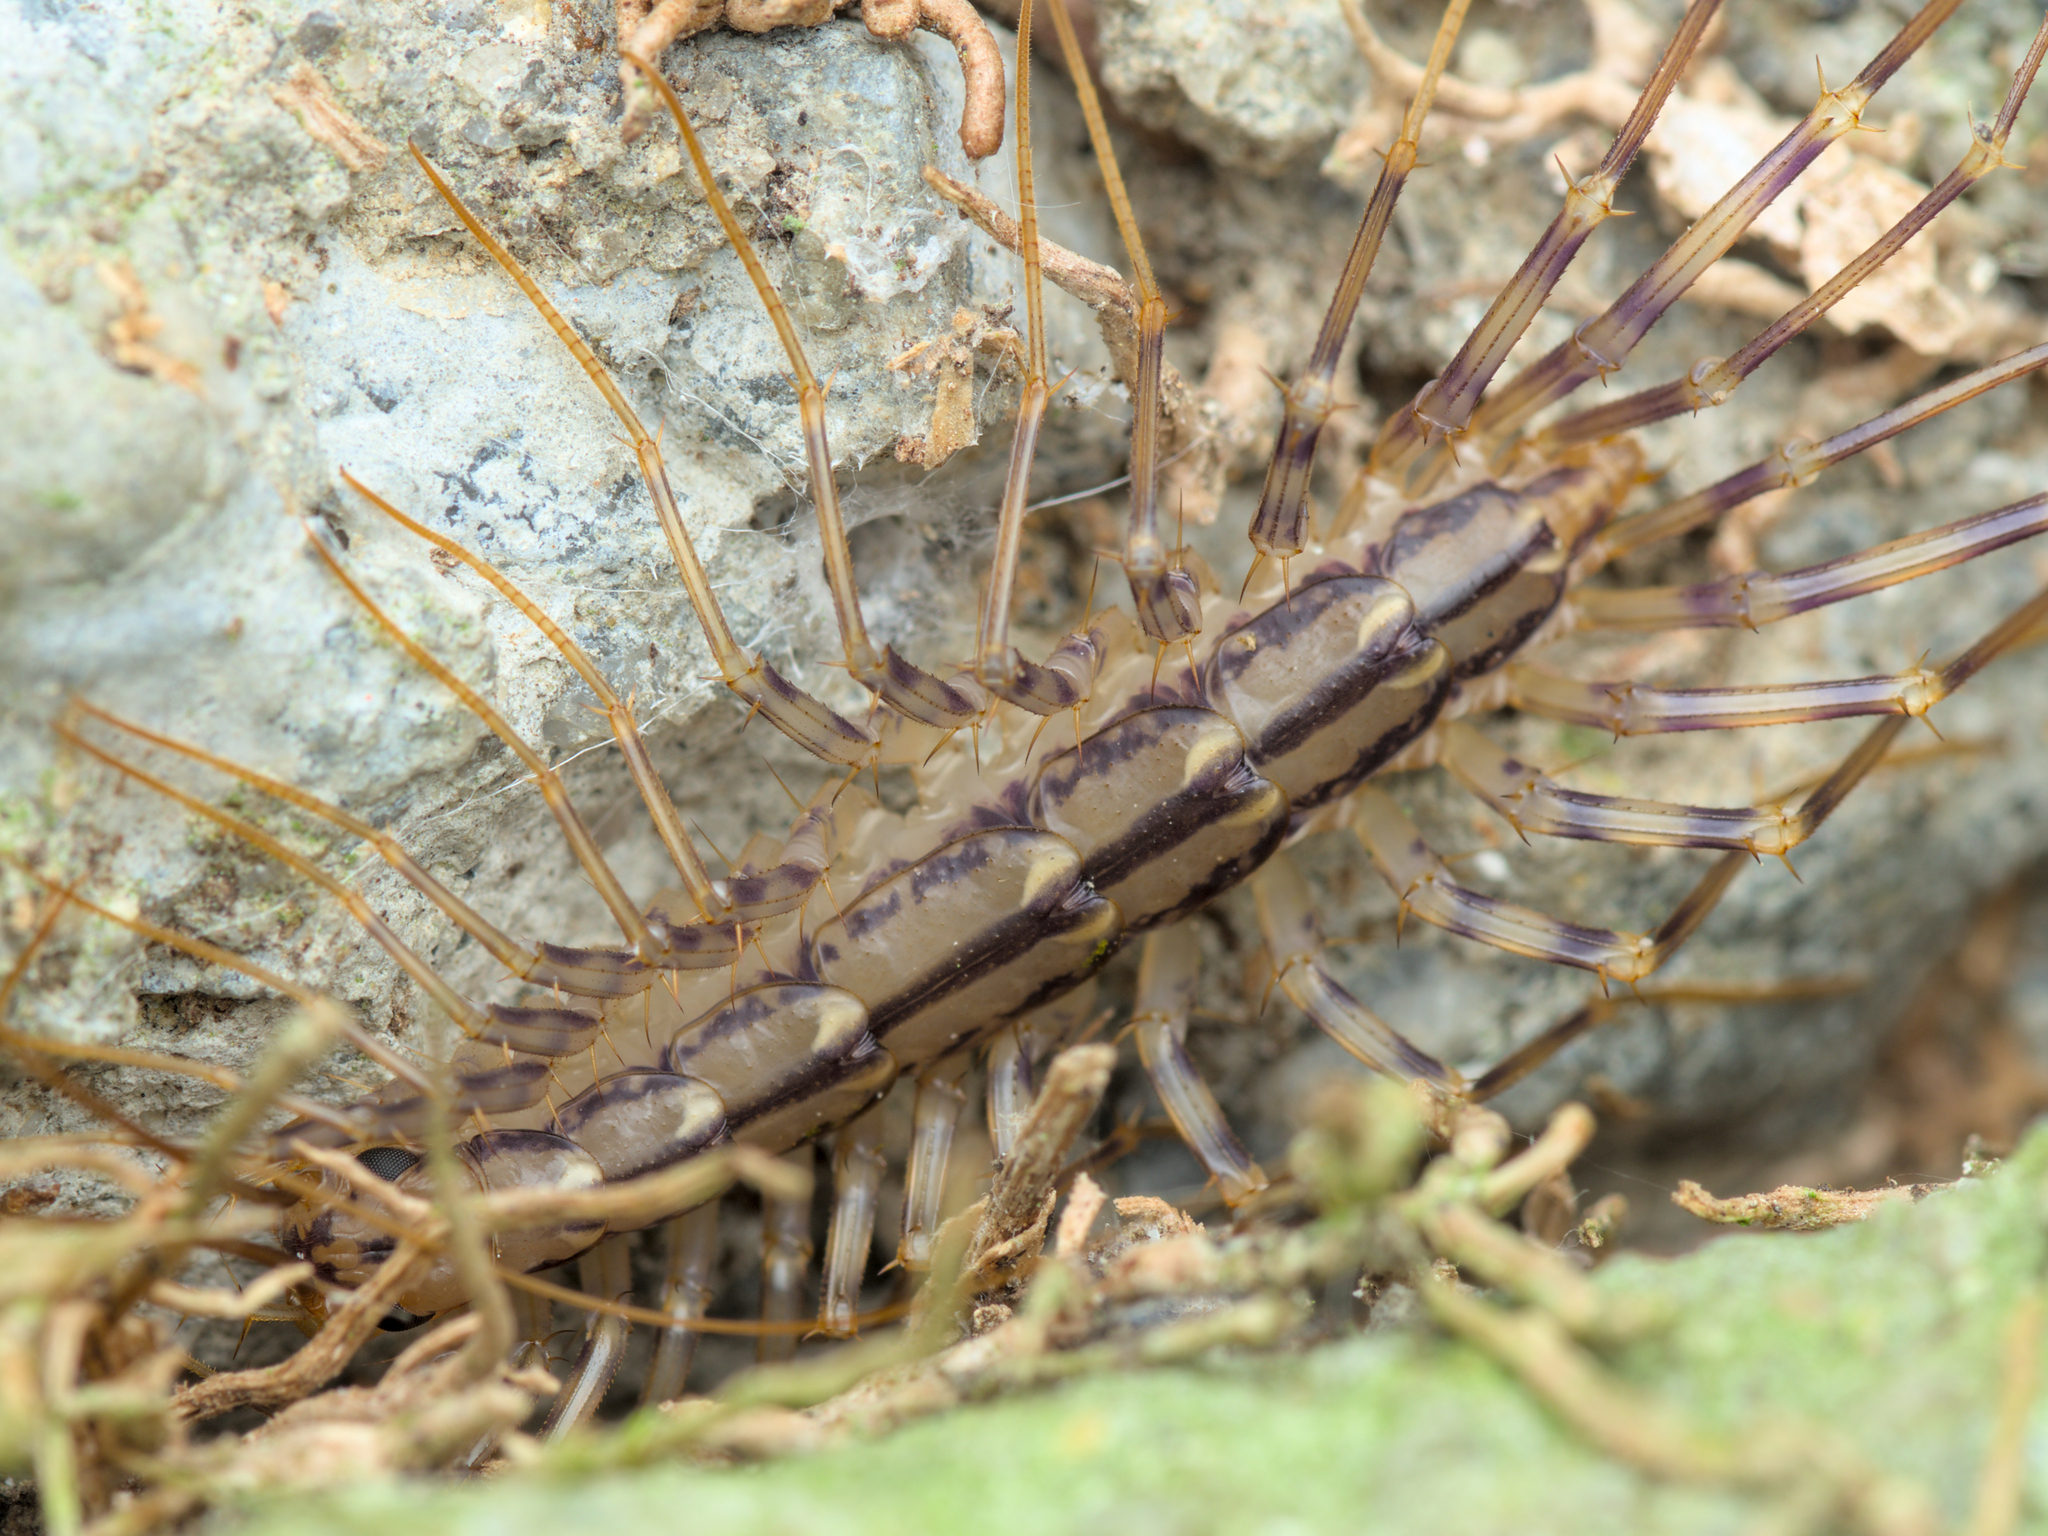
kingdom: Animalia
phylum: Arthropoda
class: Chilopoda
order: Scutigeromorpha
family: Scutigeridae
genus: Scutigera
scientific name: Scutigera coleoptrata
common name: House centipede
